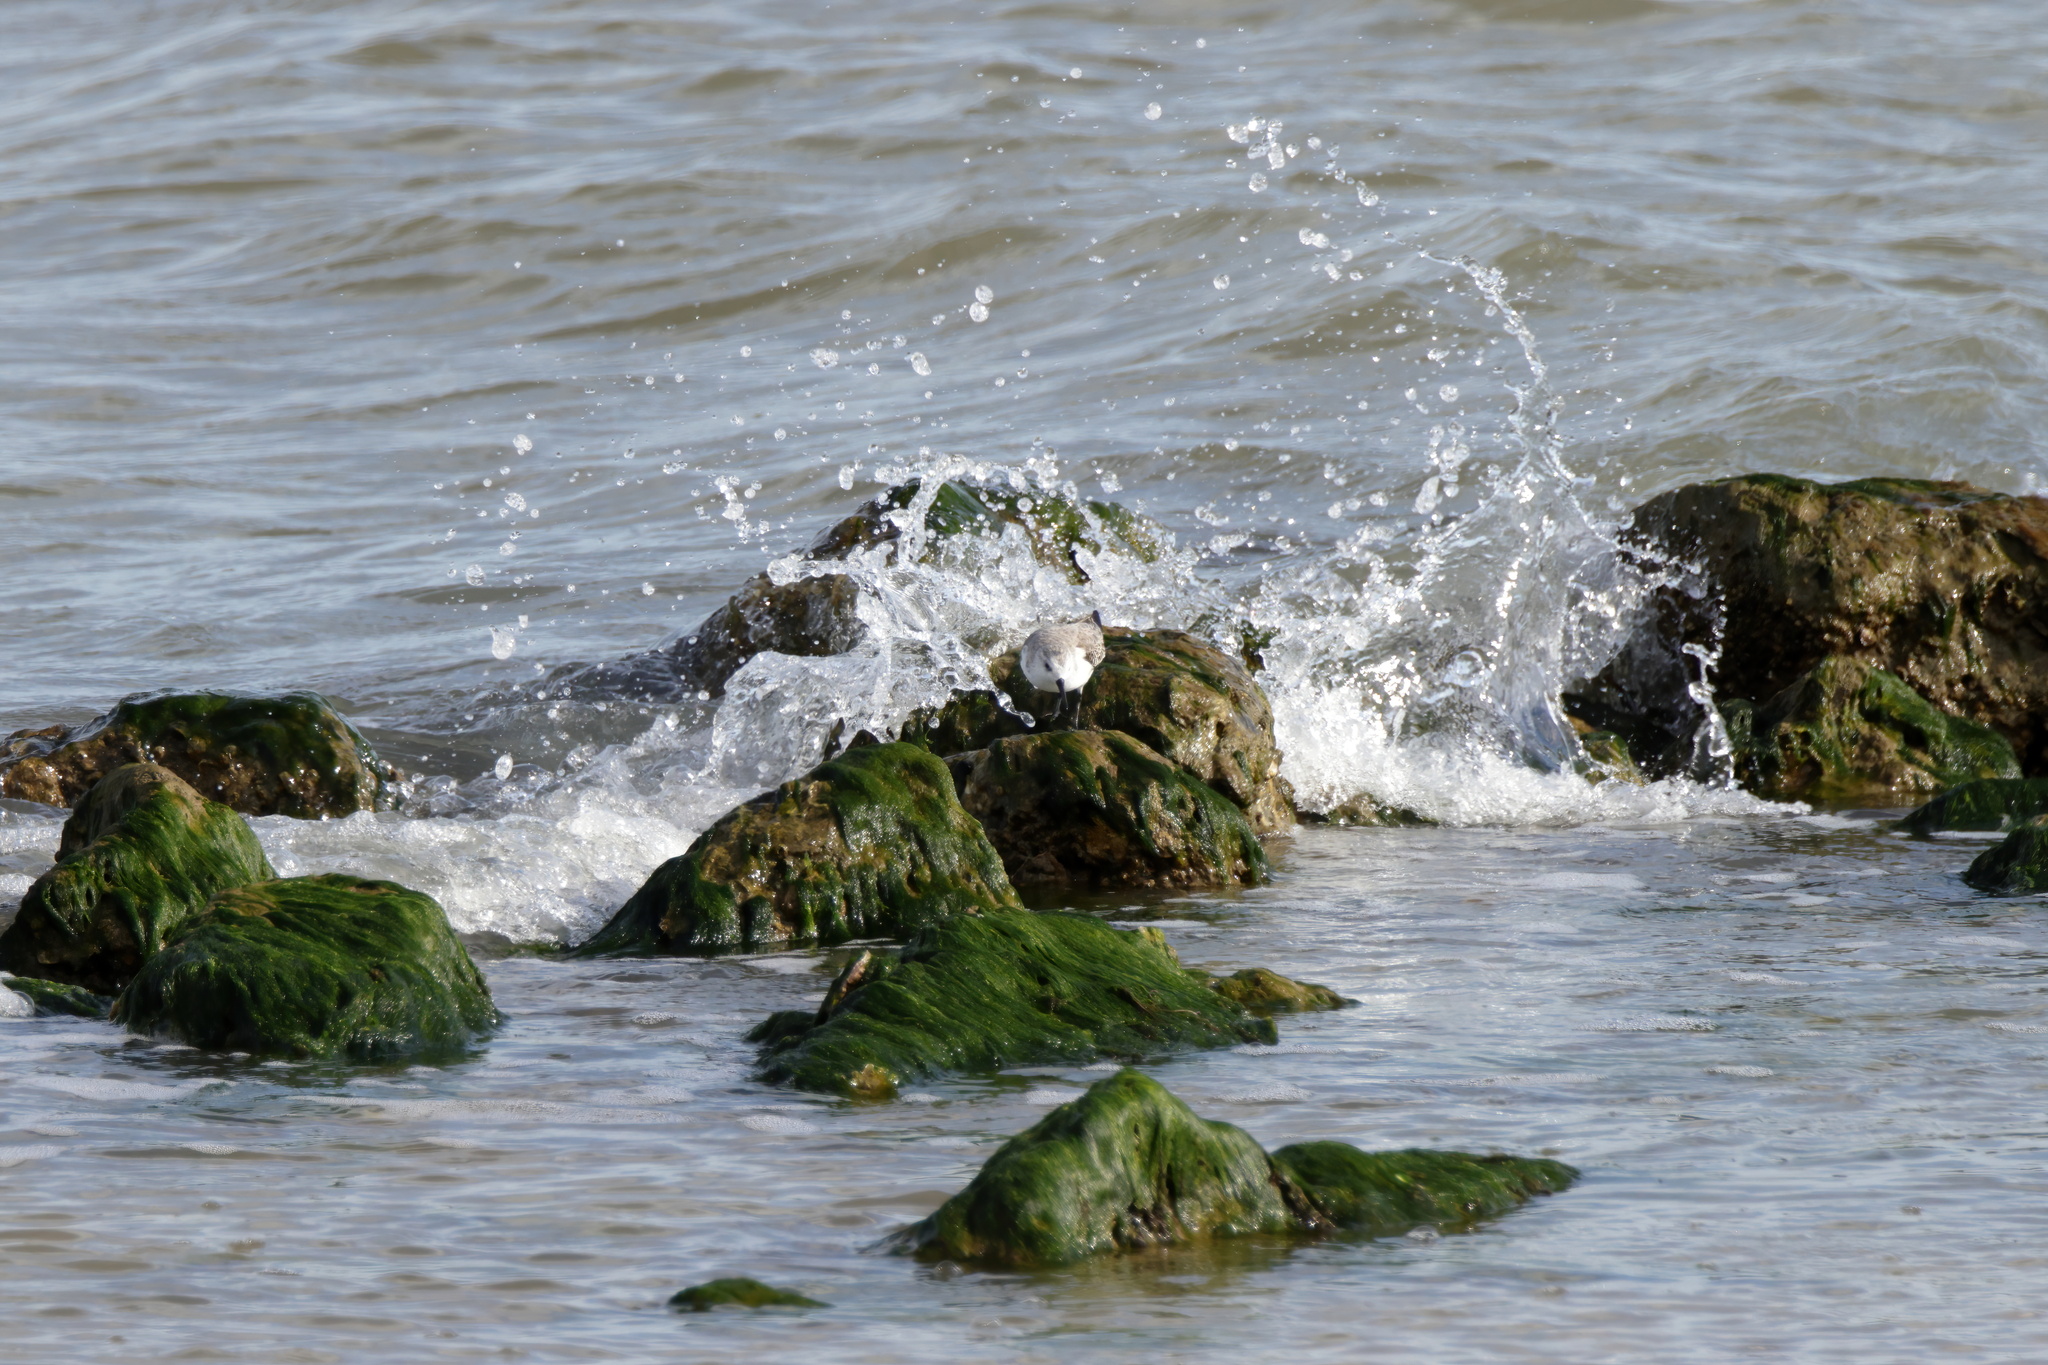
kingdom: Animalia
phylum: Chordata
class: Aves
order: Charadriiformes
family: Scolopacidae
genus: Calidris
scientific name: Calidris alba
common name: Sanderling
